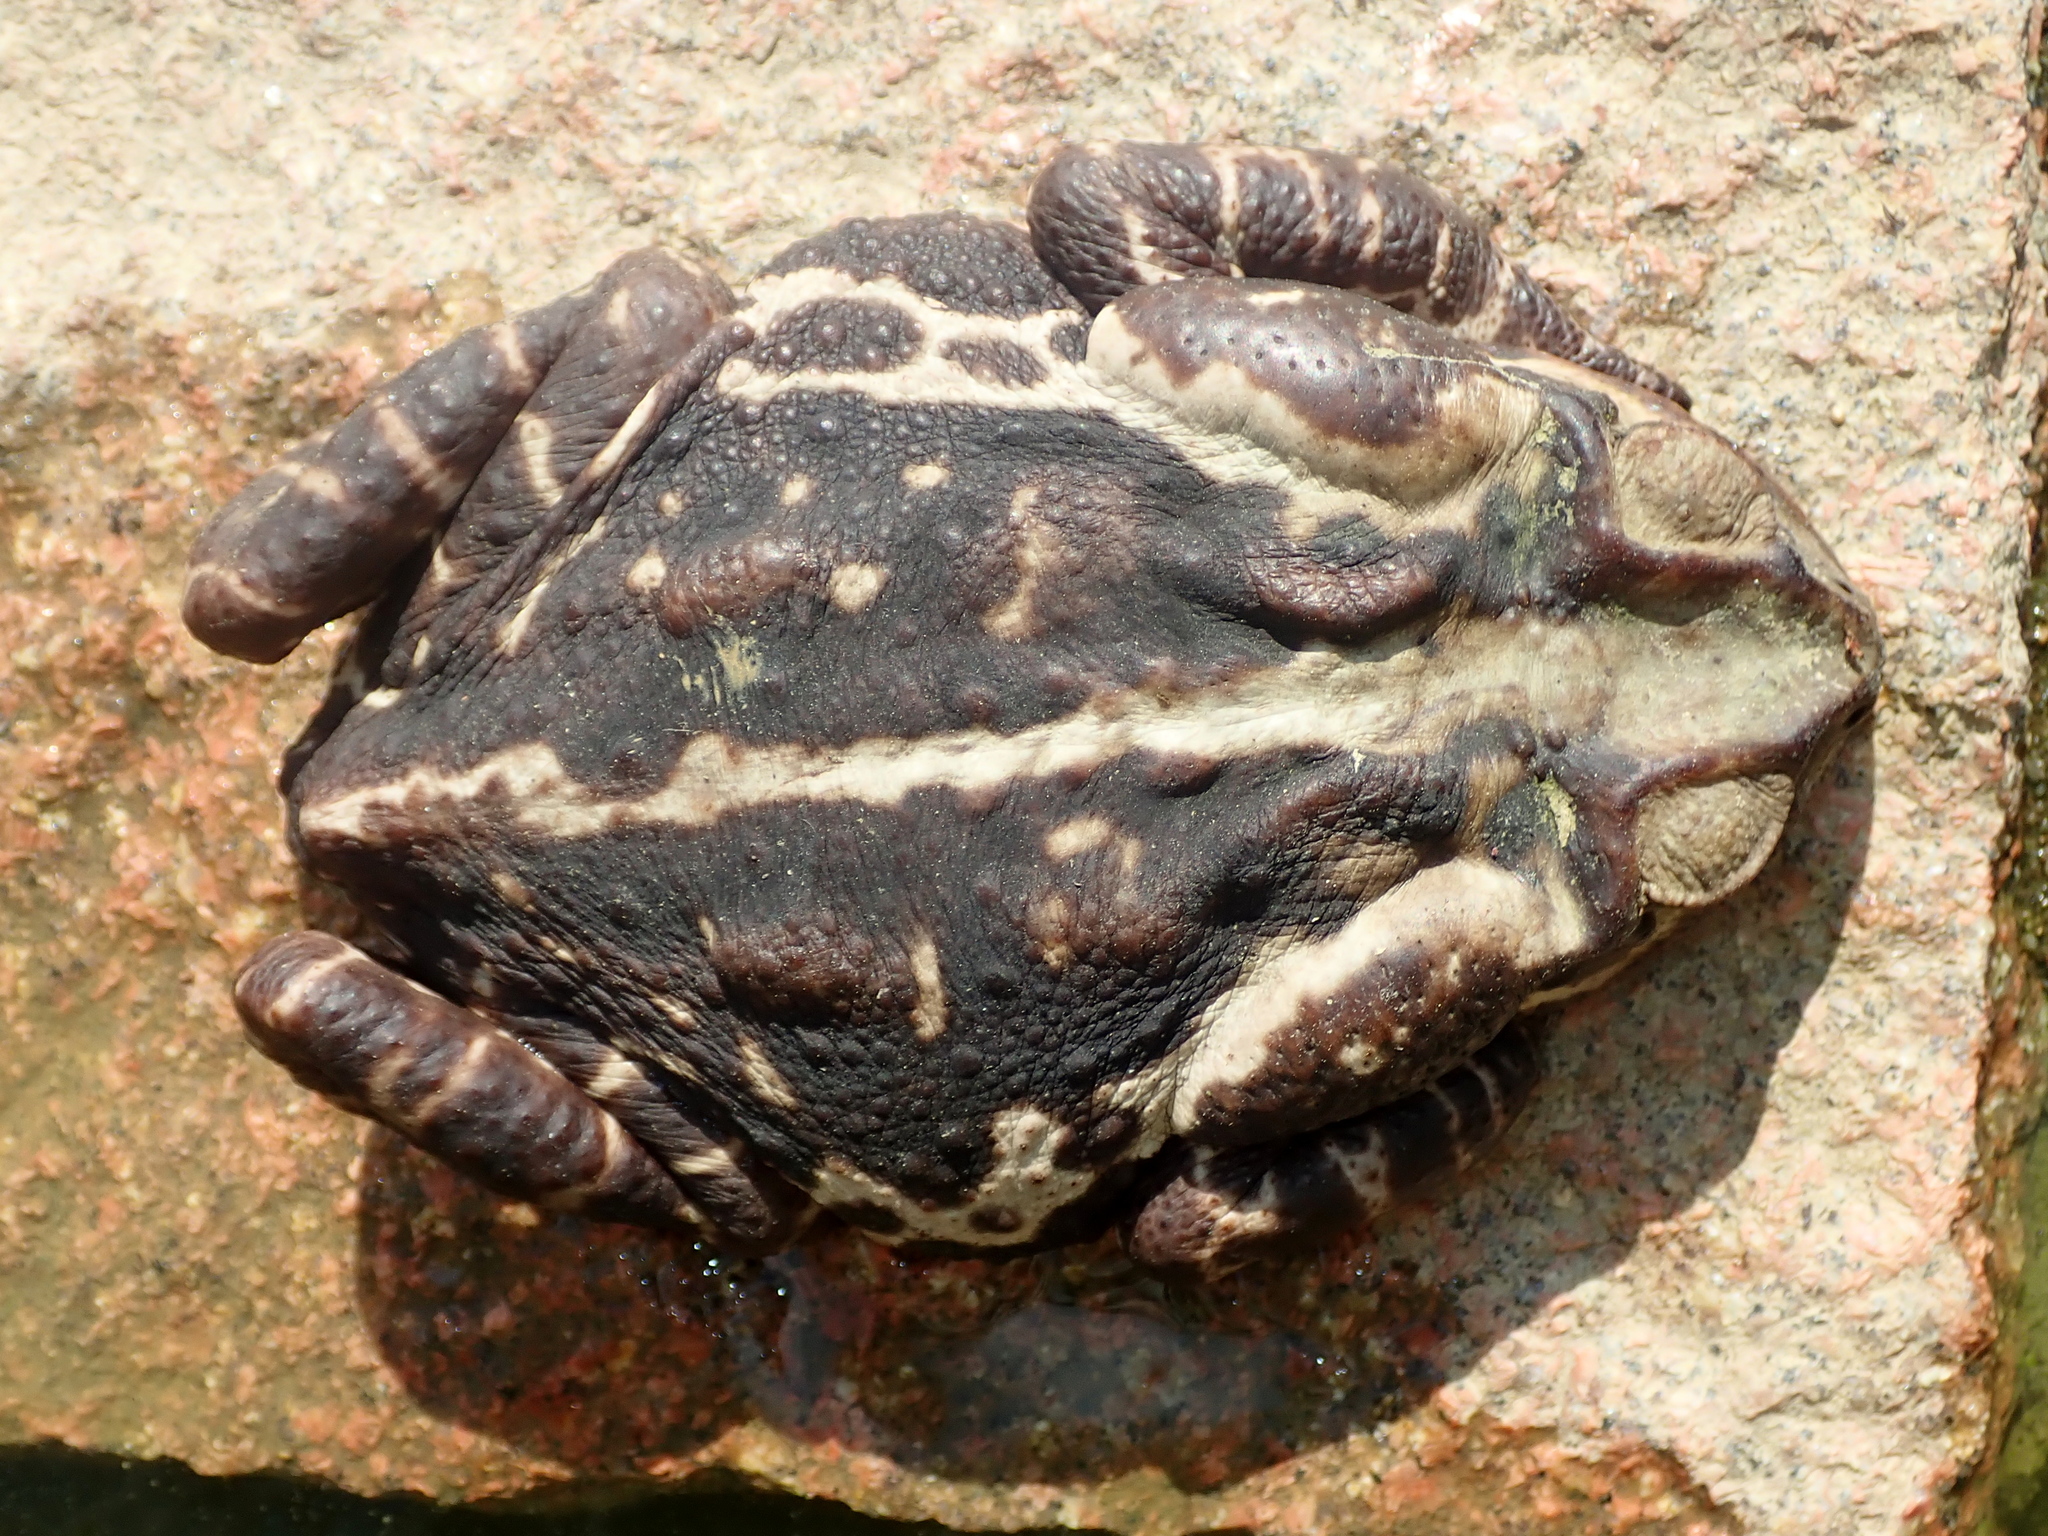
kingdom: Animalia
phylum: Chordata
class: Amphibia
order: Anura
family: Bufonidae
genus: Rhinella
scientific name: Rhinella icterica
